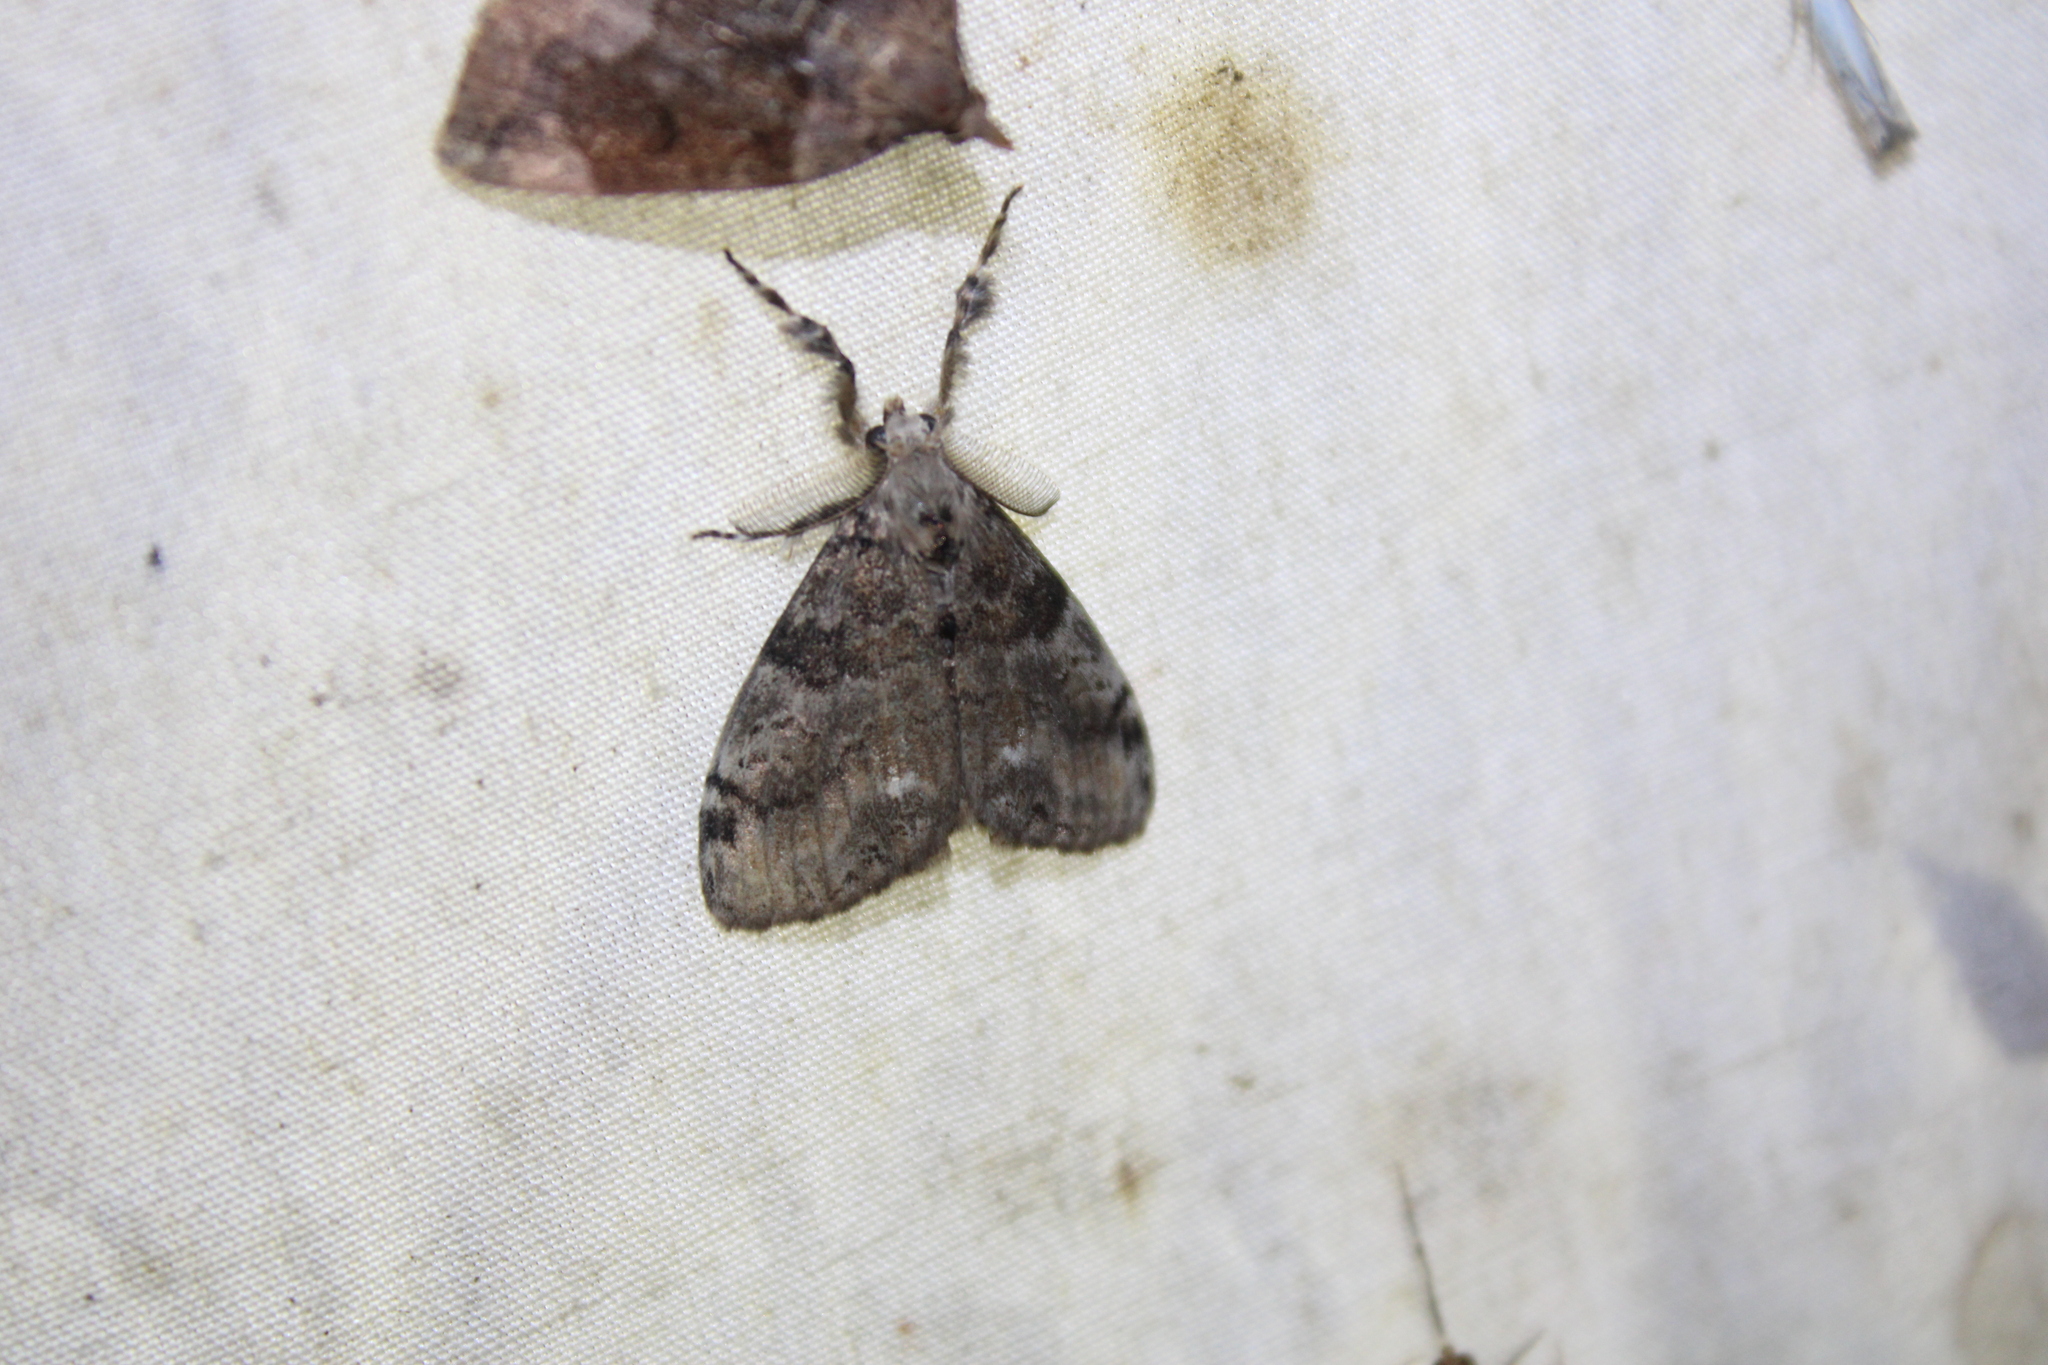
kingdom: Animalia
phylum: Arthropoda
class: Insecta
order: Lepidoptera
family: Erebidae
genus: Orgyia
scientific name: Orgyia leucostigma
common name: White-marked tussock moth
